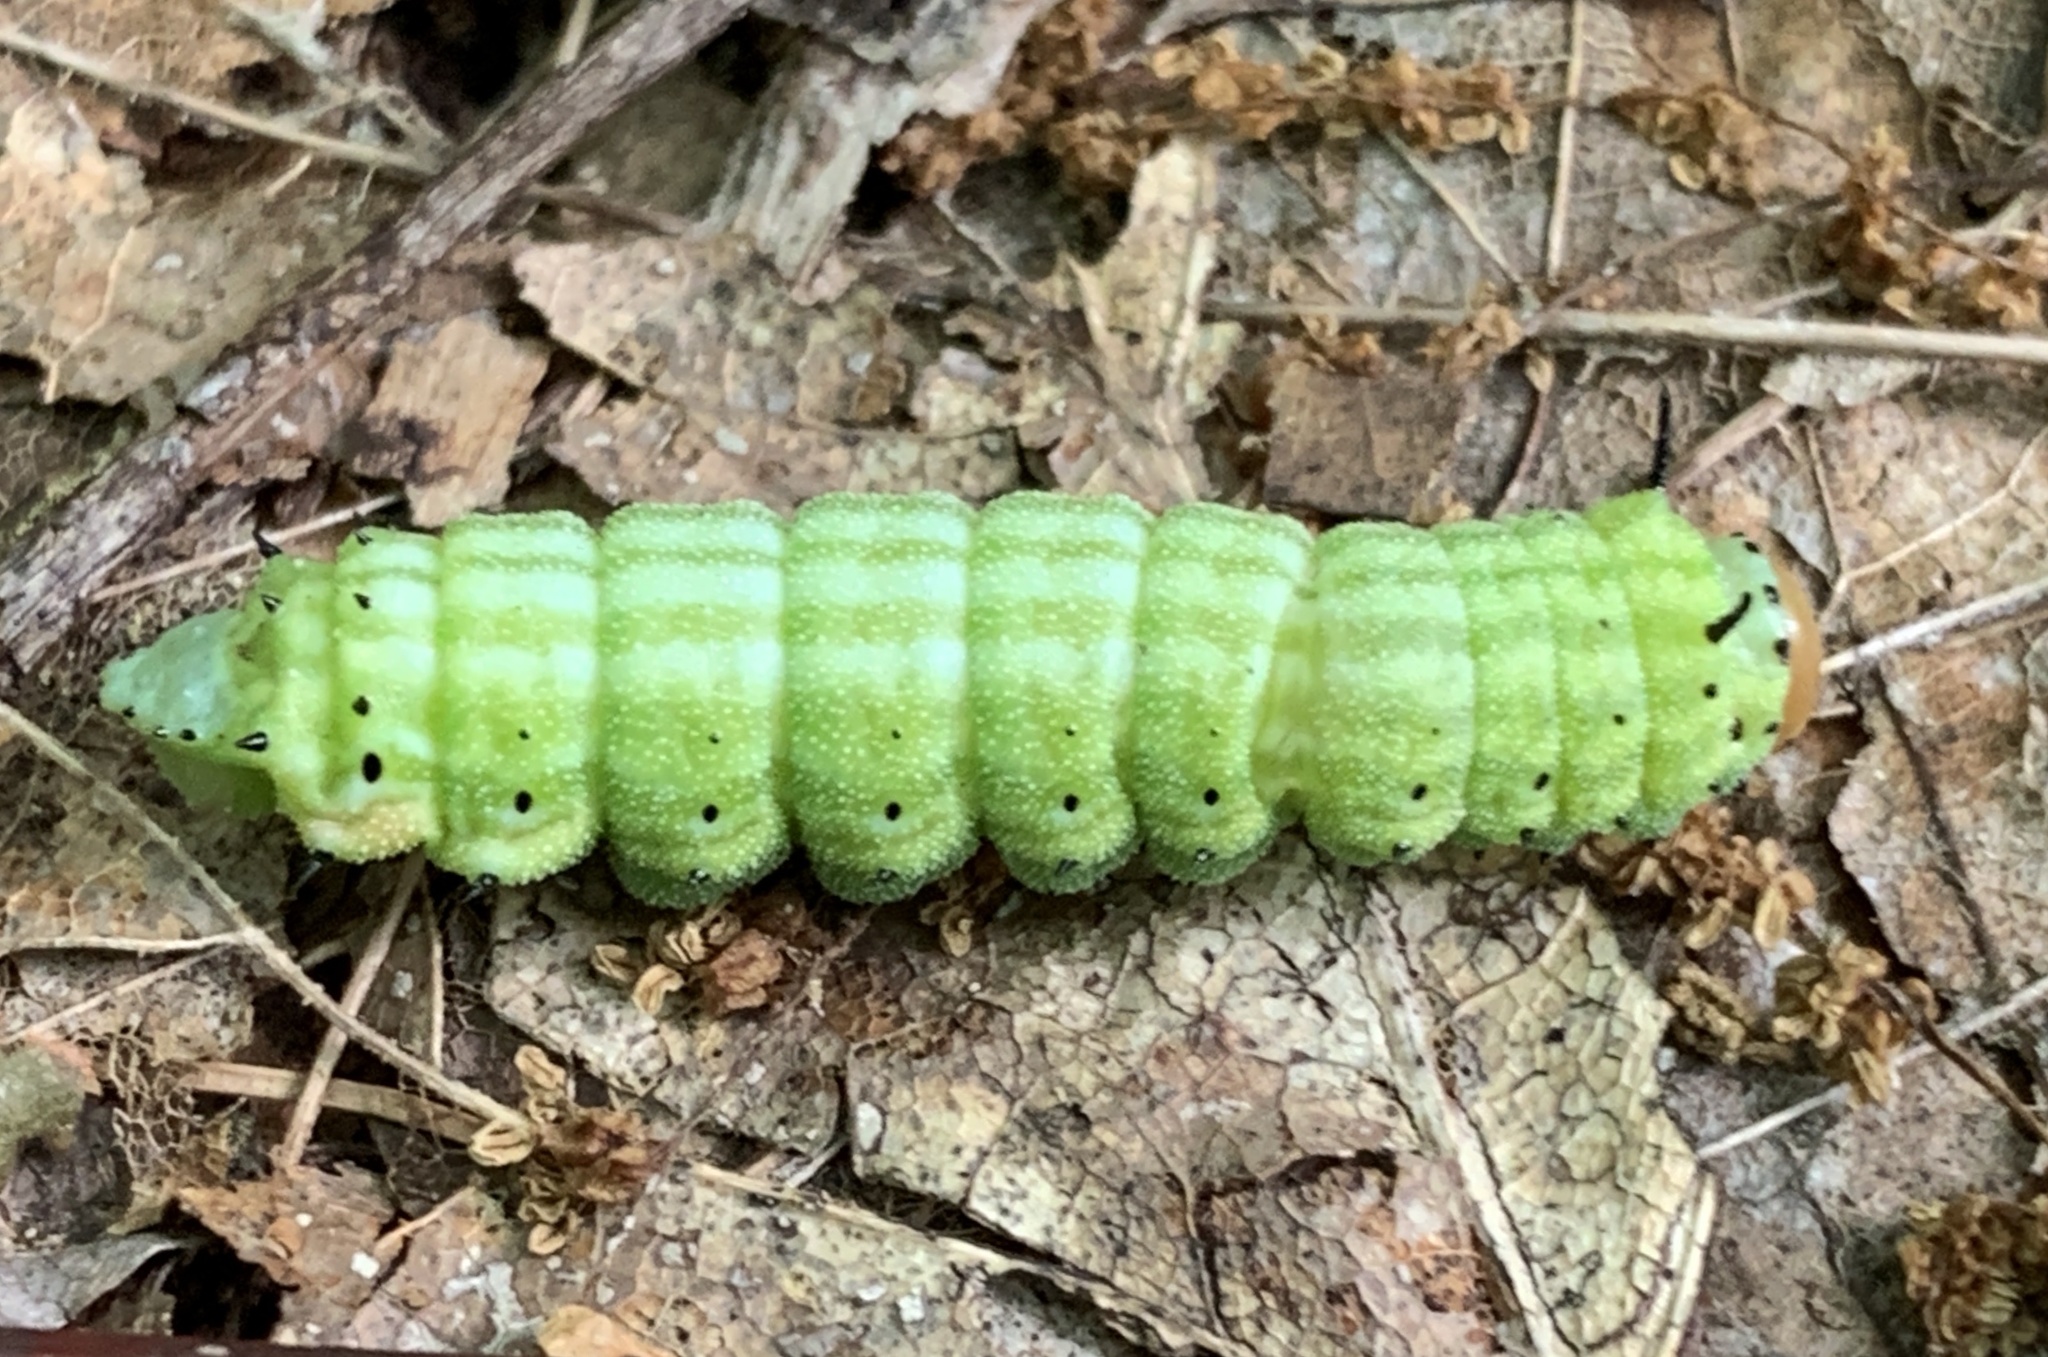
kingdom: Animalia
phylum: Arthropoda
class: Insecta
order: Lepidoptera
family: Saturniidae
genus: Dryocampa
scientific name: Dryocampa rubicunda
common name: Rosy maple moth
